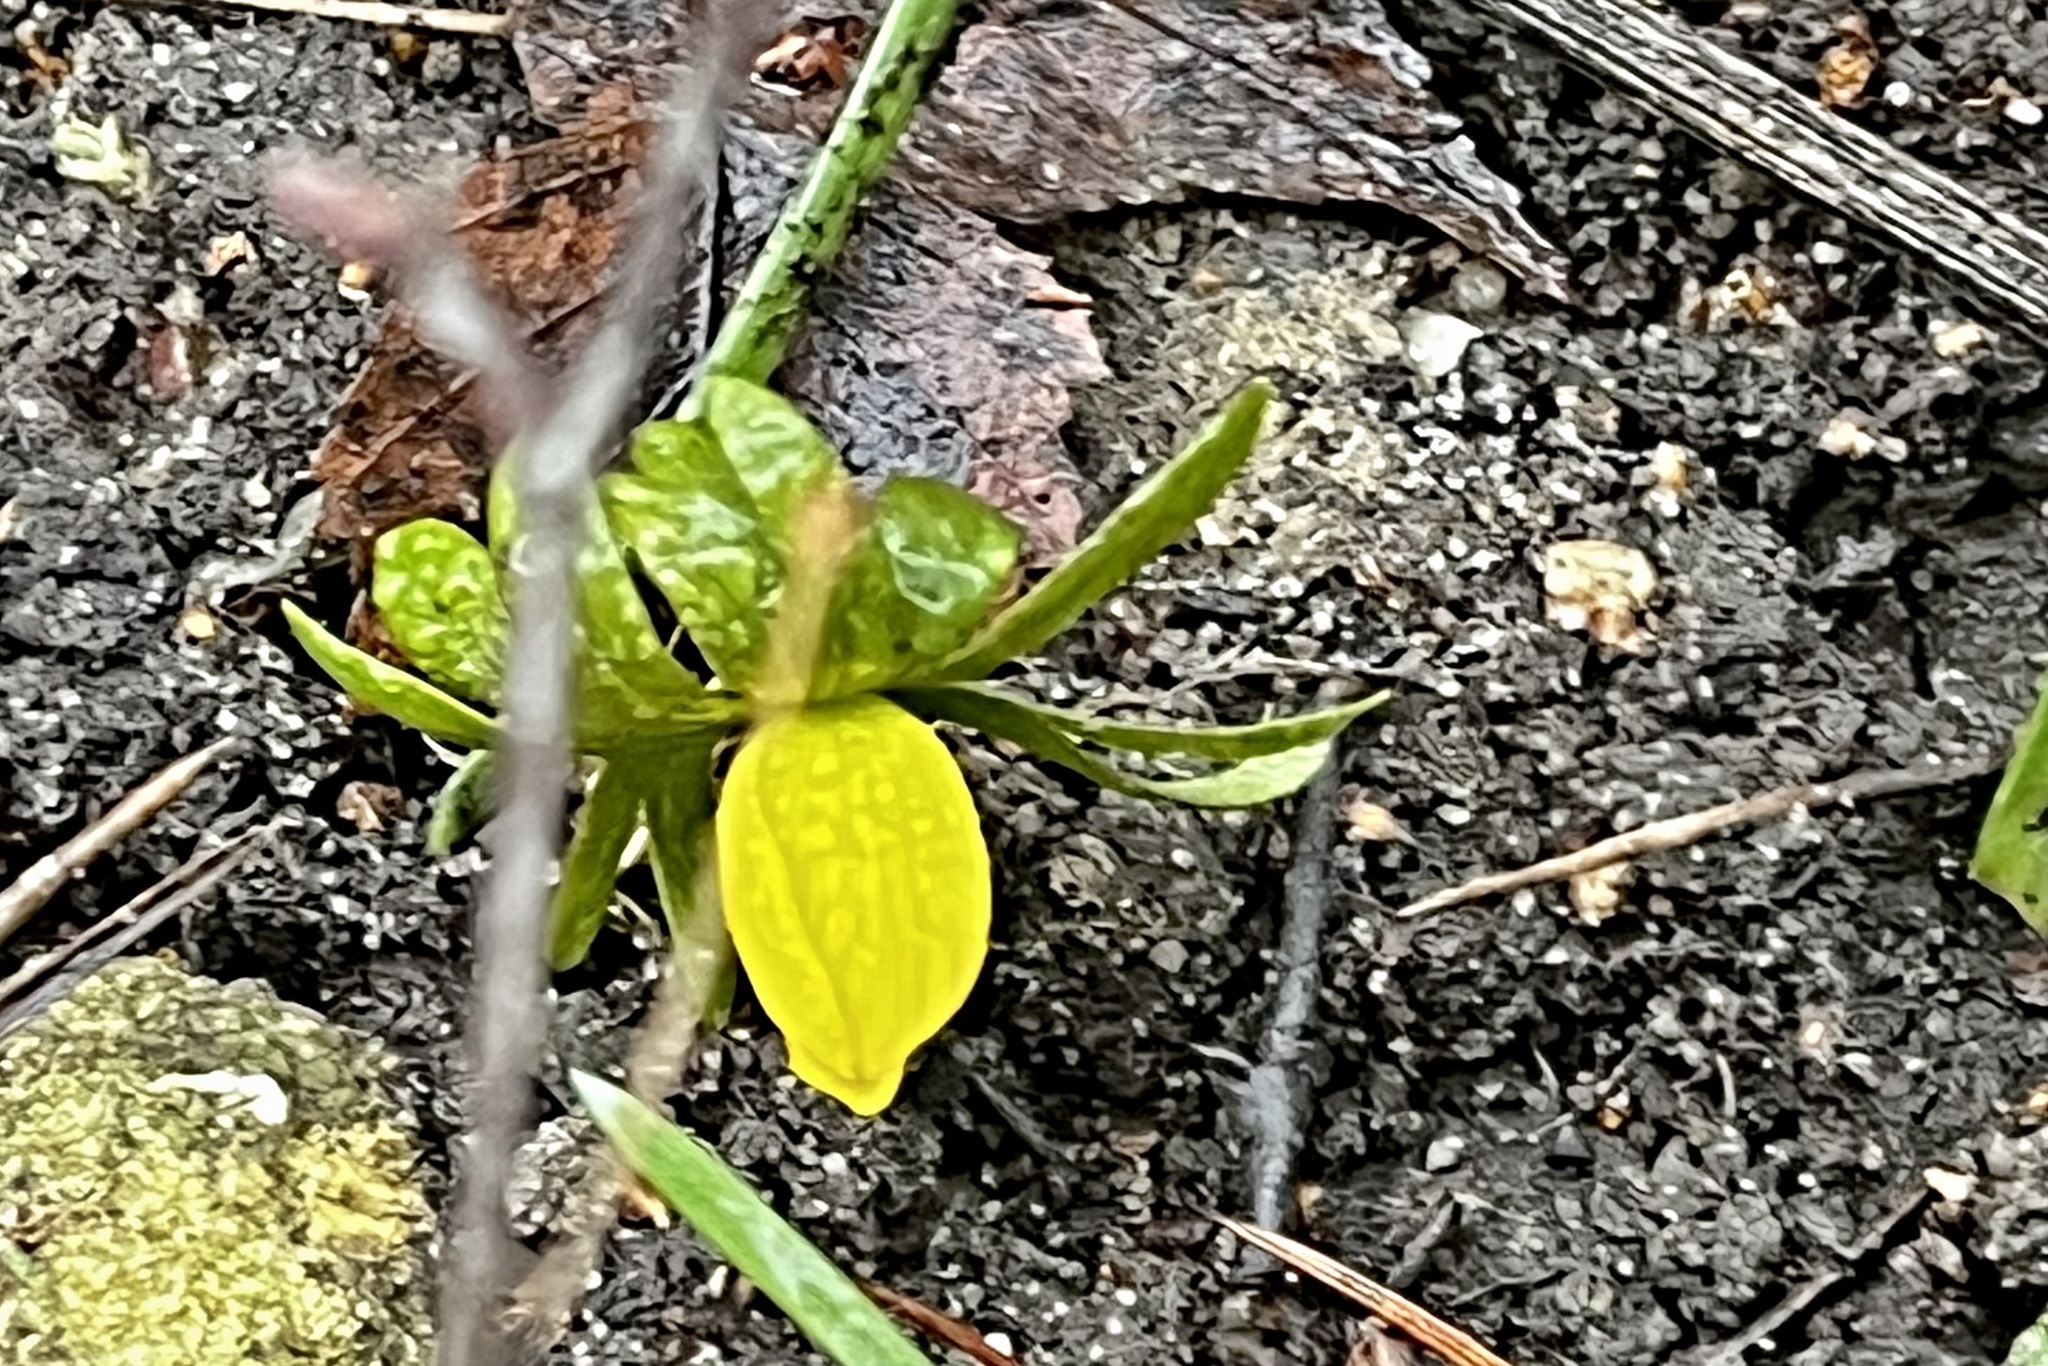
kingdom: Plantae
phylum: Tracheophyta
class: Magnoliopsida
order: Ranunculales
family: Ranunculaceae
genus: Eranthis
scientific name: Eranthis hyemalis
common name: Winter aconite
